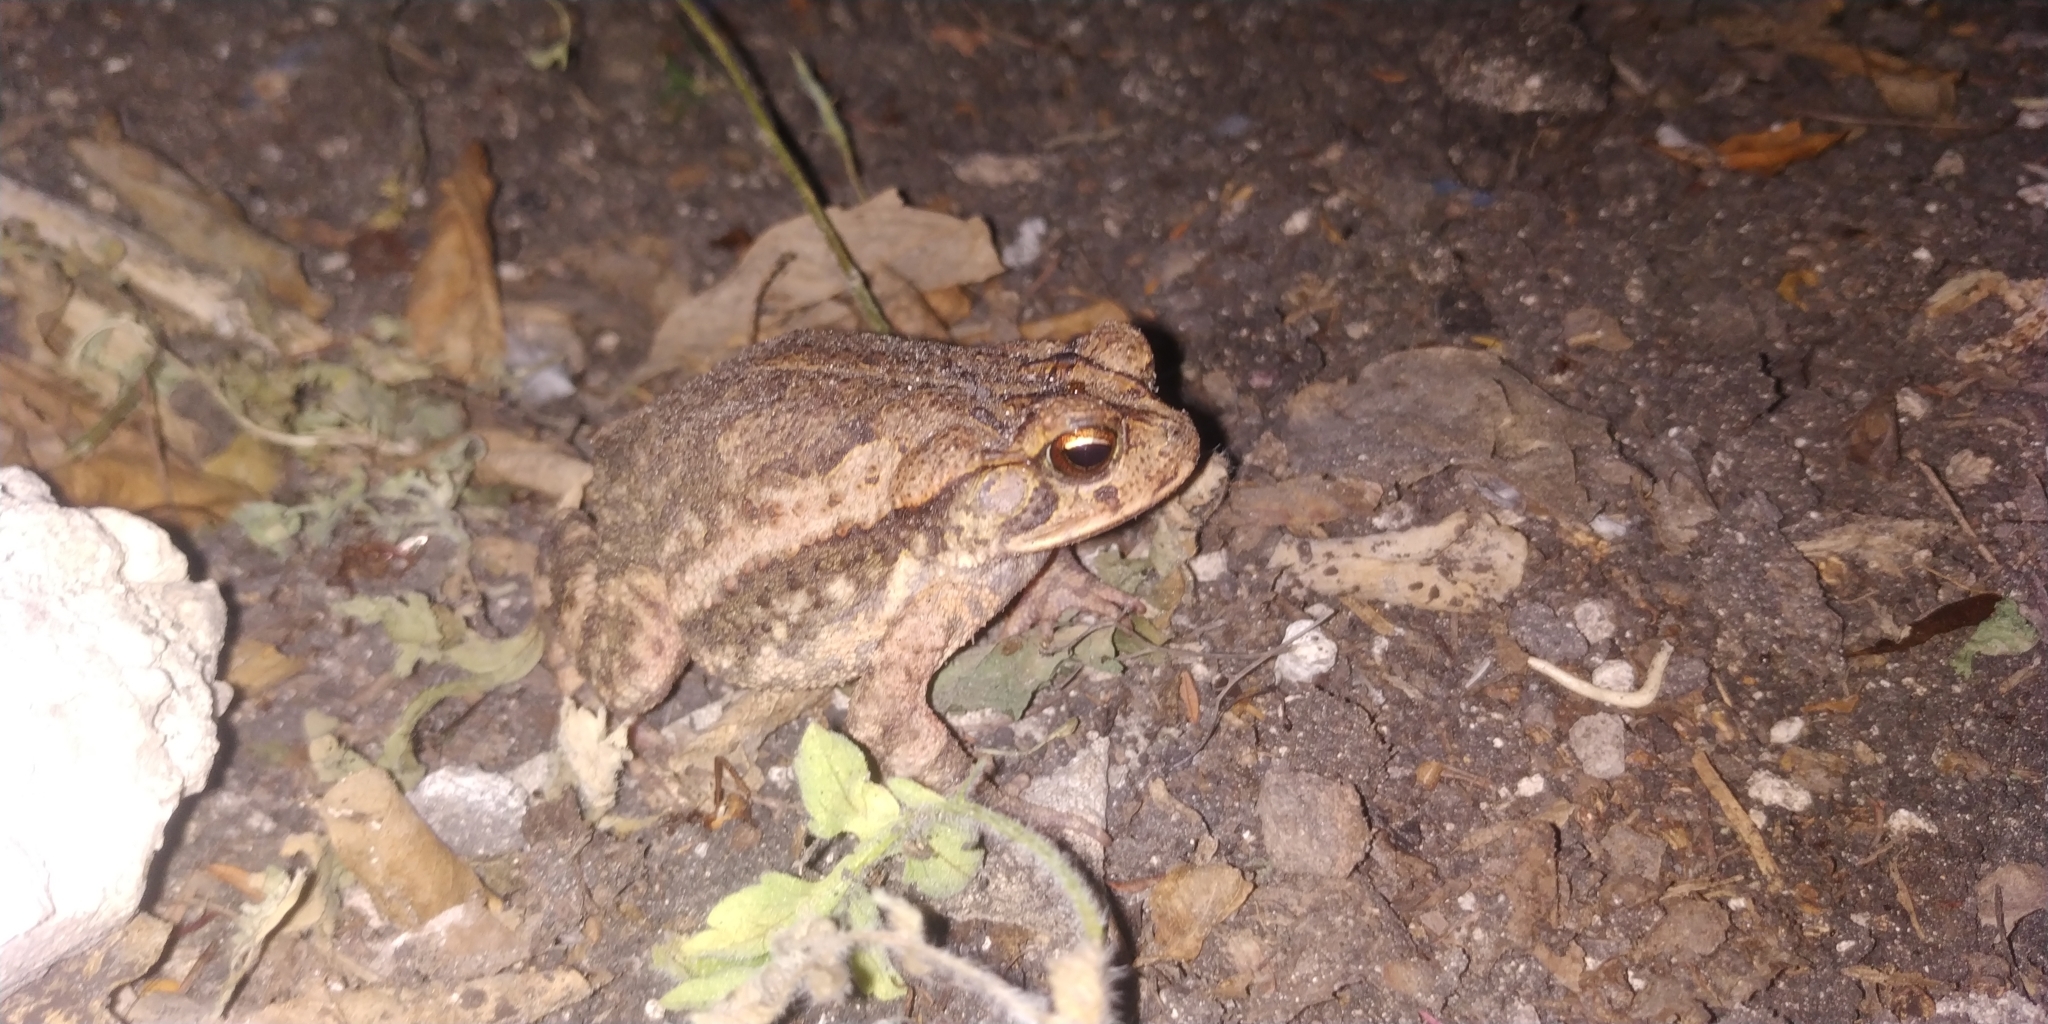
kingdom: Animalia
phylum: Chordata
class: Amphibia
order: Anura
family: Bufonidae
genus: Incilius
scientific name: Incilius valliceps
